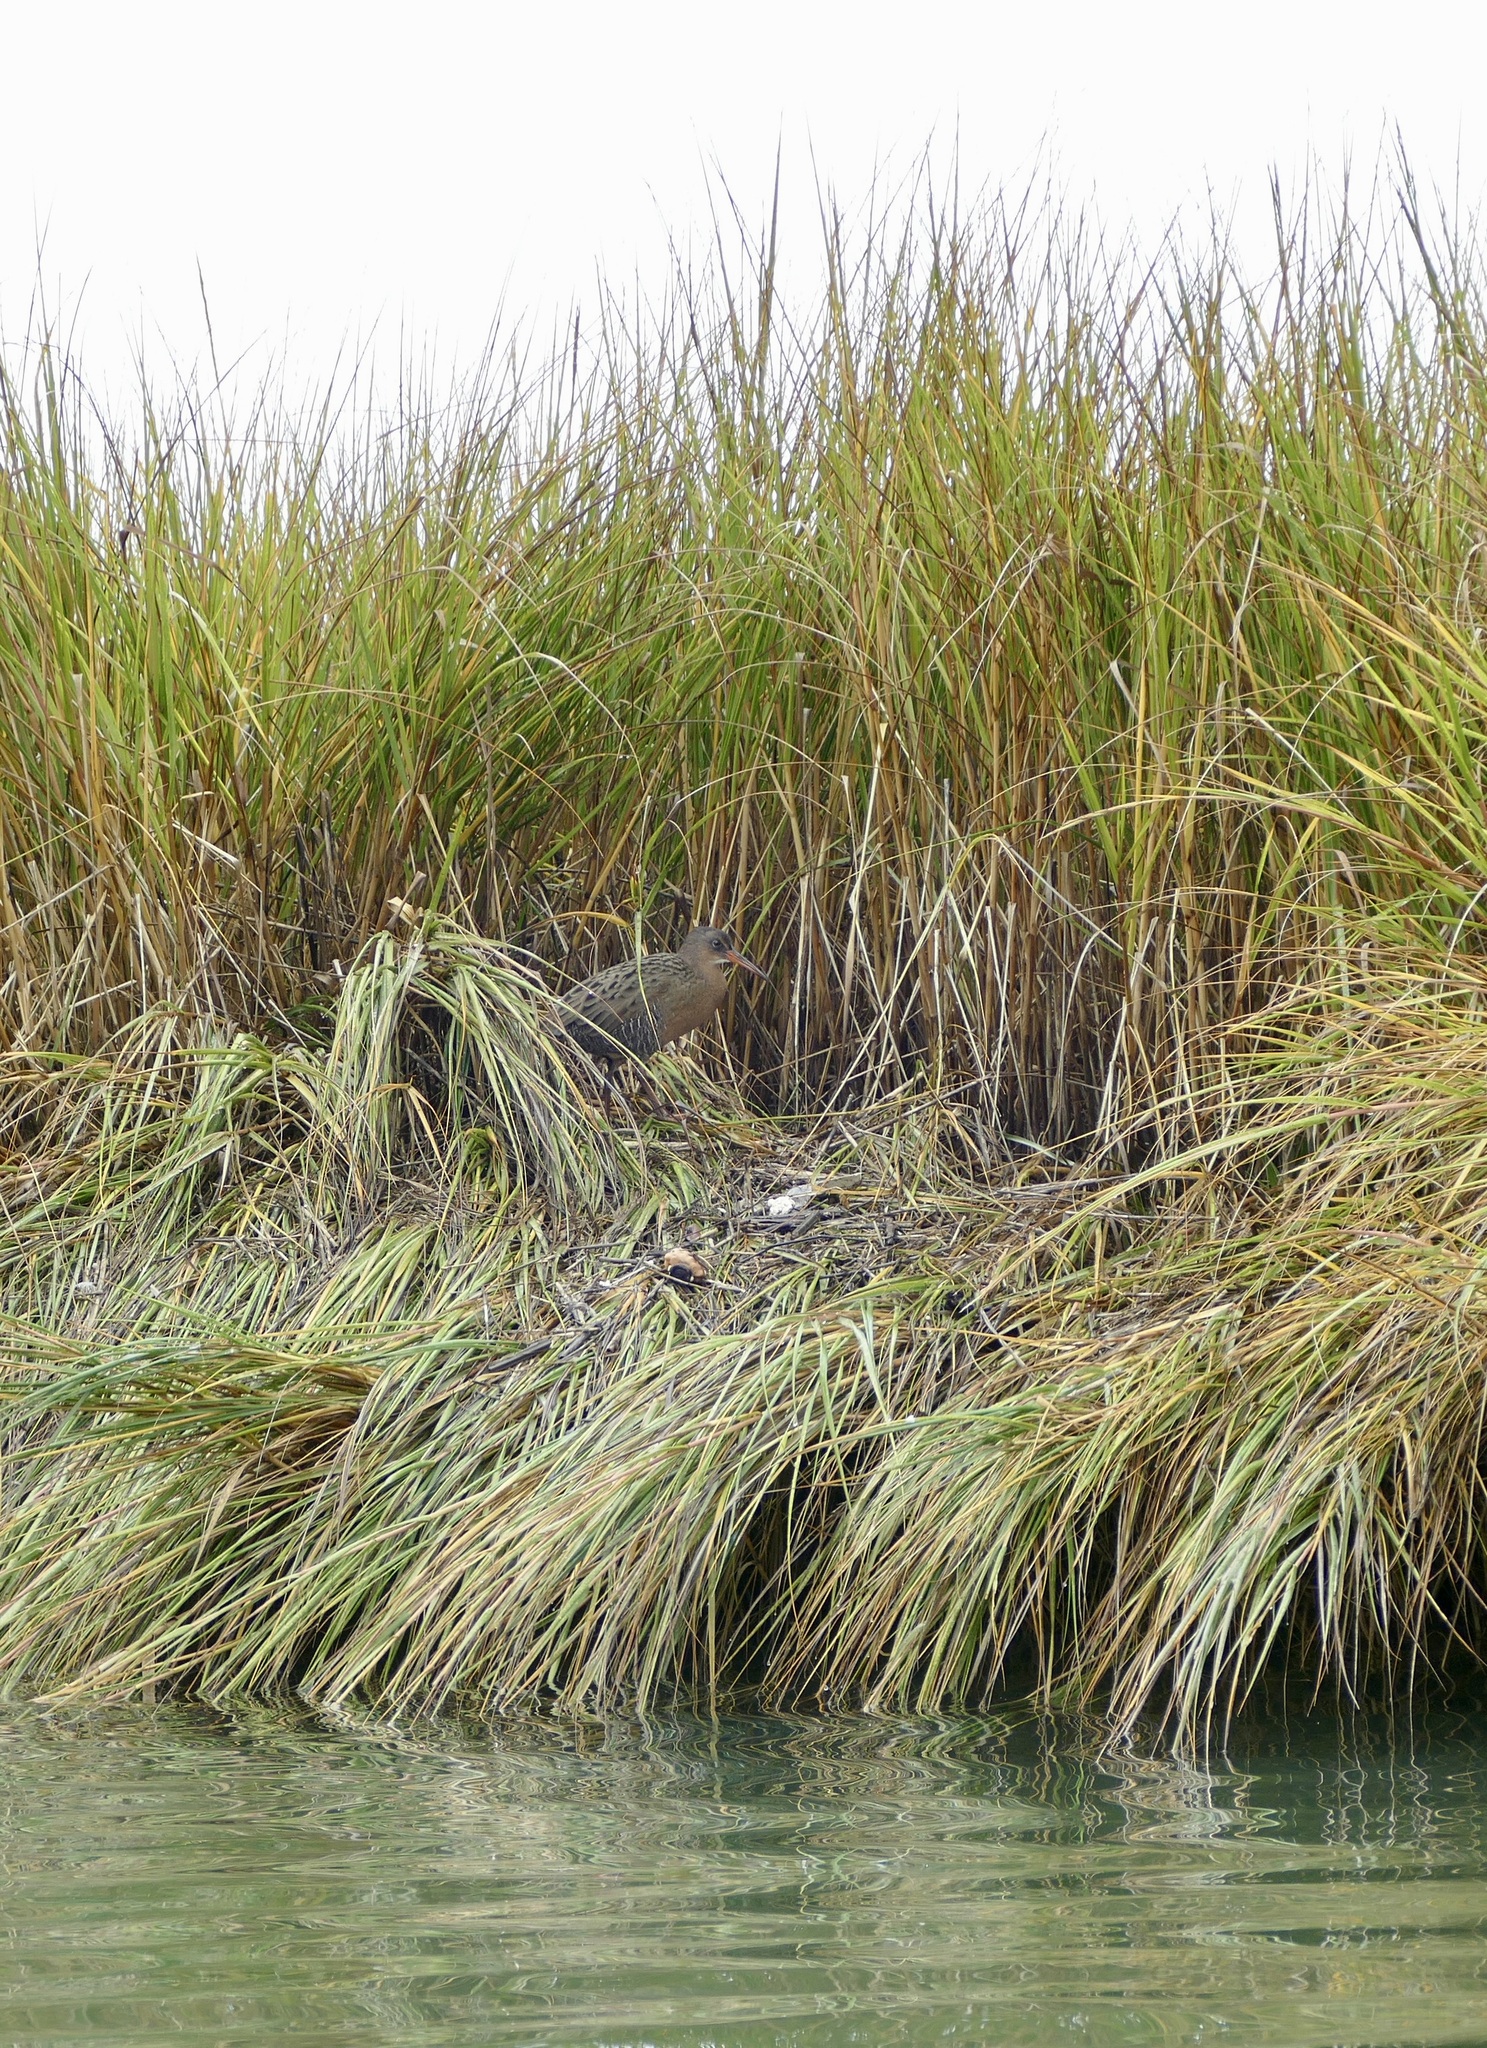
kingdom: Animalia
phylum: Chordata
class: Aves
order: Gruiformes
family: Rallidae
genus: Rallus
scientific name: Rallus obsoletus
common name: Ridgway's rail
